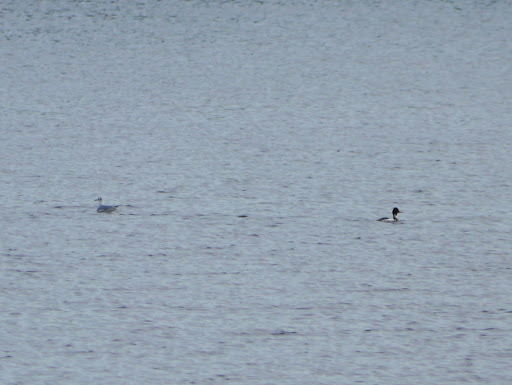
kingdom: Animalia
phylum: Chordata
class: Aves
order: Charadriiformes
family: Laridae
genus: Chroicocephalus
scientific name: Chroicocephalus philadelphia
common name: Bonaparte's gull
